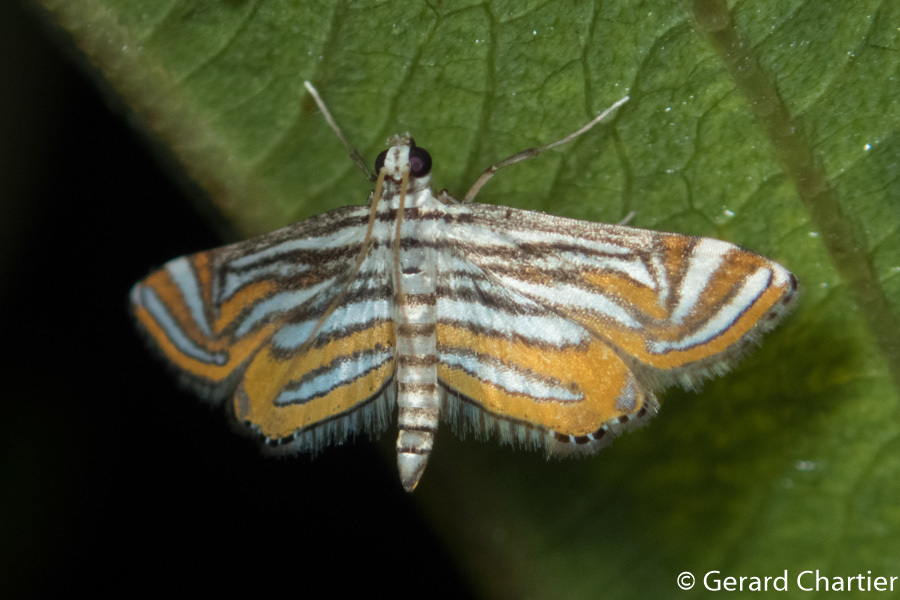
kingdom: Animalia
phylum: Arthropoda
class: Insecta
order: Lepidoptera
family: Crambidae
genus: Parapoynx
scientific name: Parapoynx bilinealis
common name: Streaked china-mark
